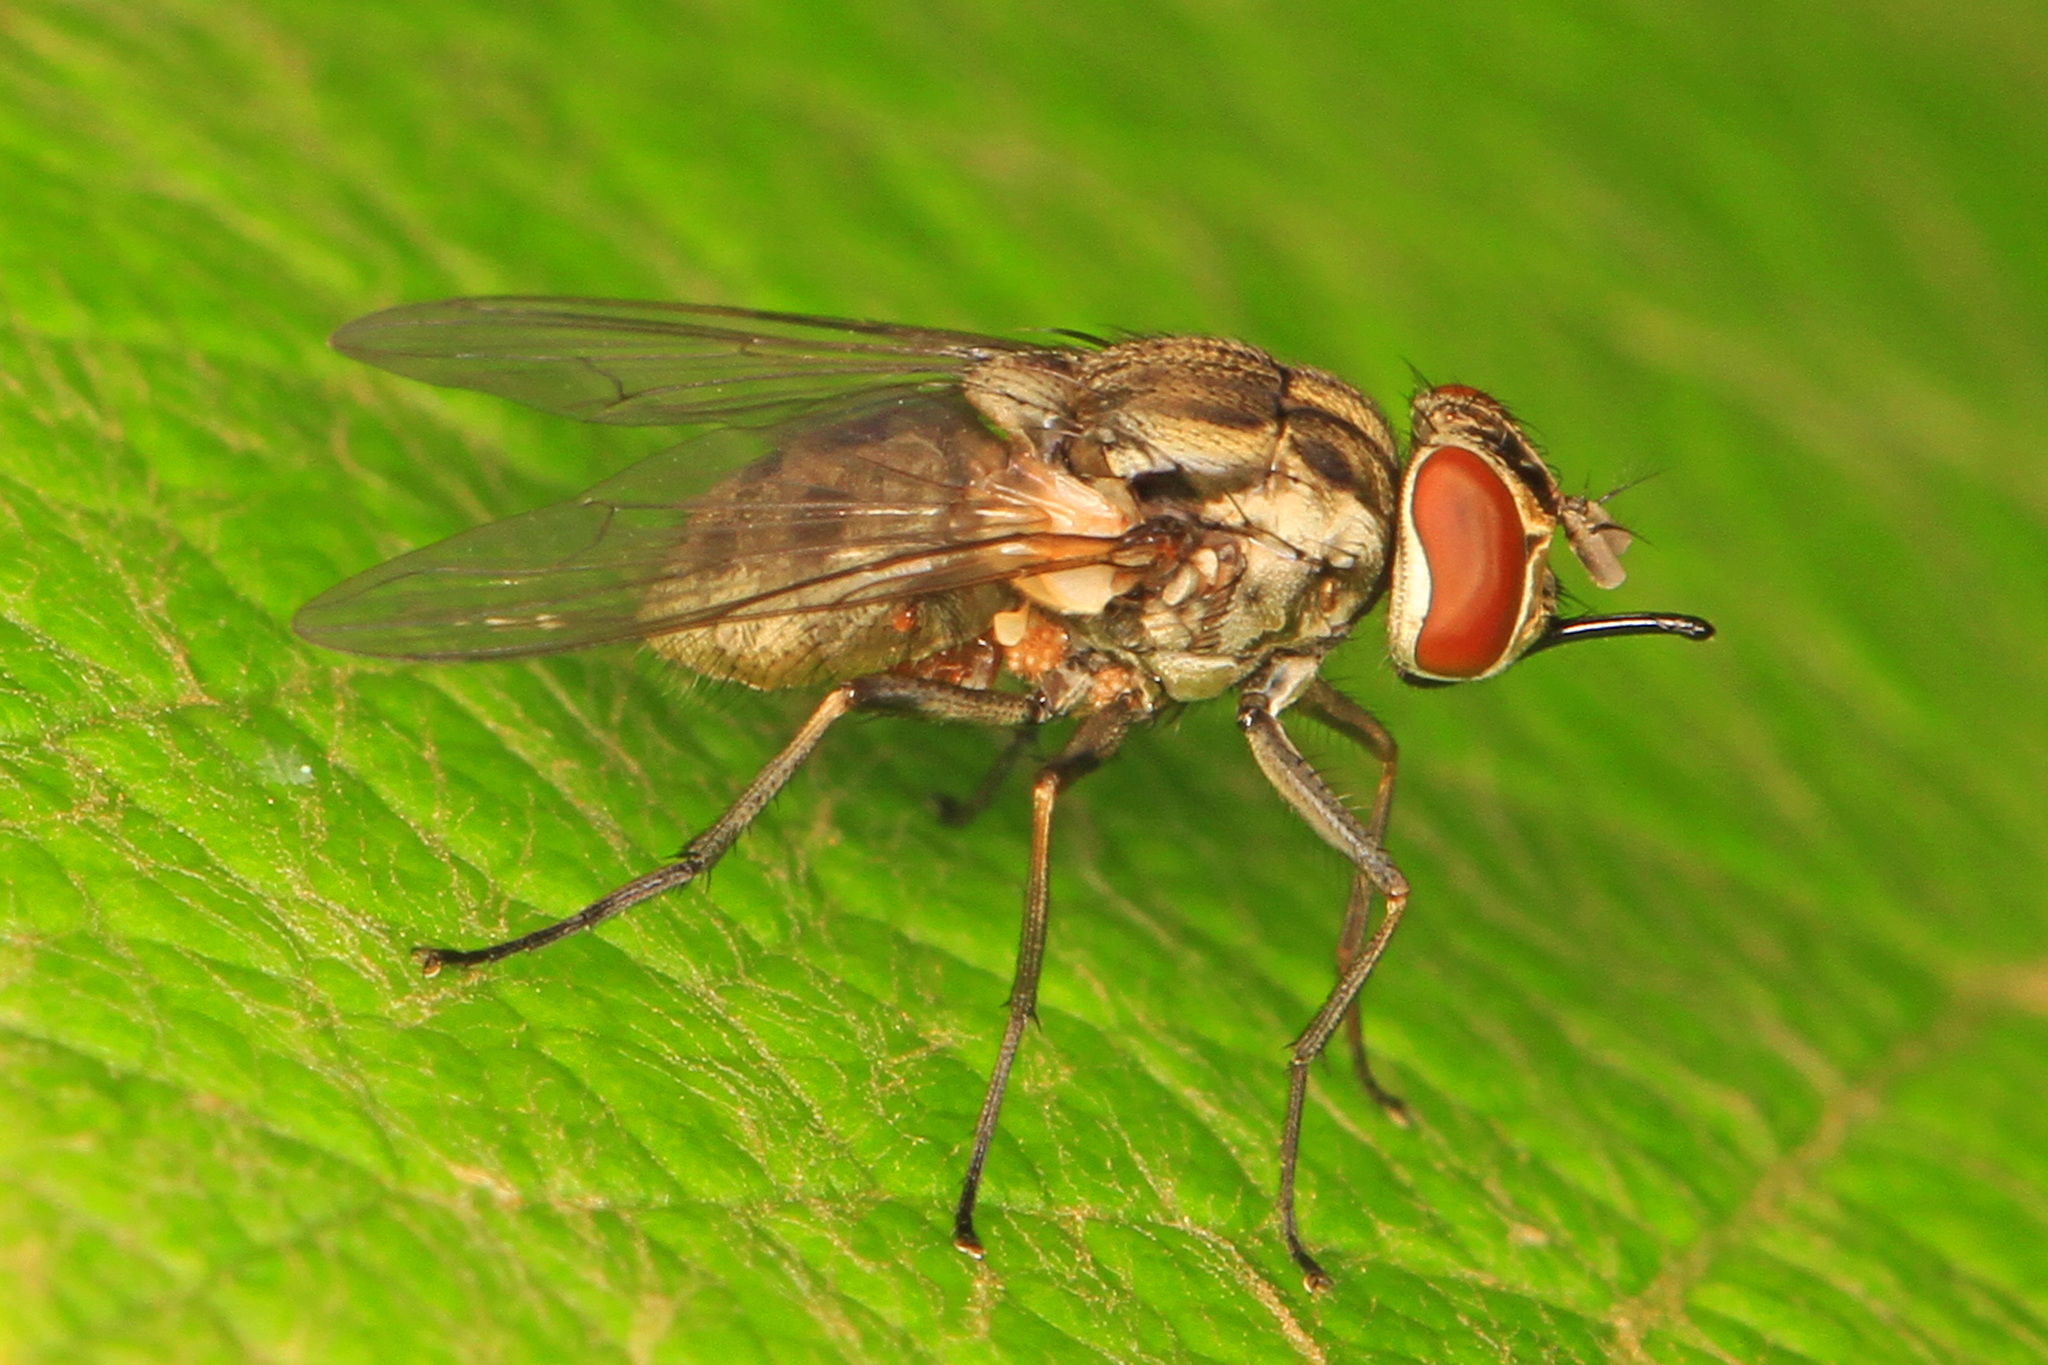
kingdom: Animalia
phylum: Arthropoda
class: Insecta
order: Diptera
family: Muscidae
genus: Stomoxys
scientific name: Stomoxys calcitrans
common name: Stable fly
